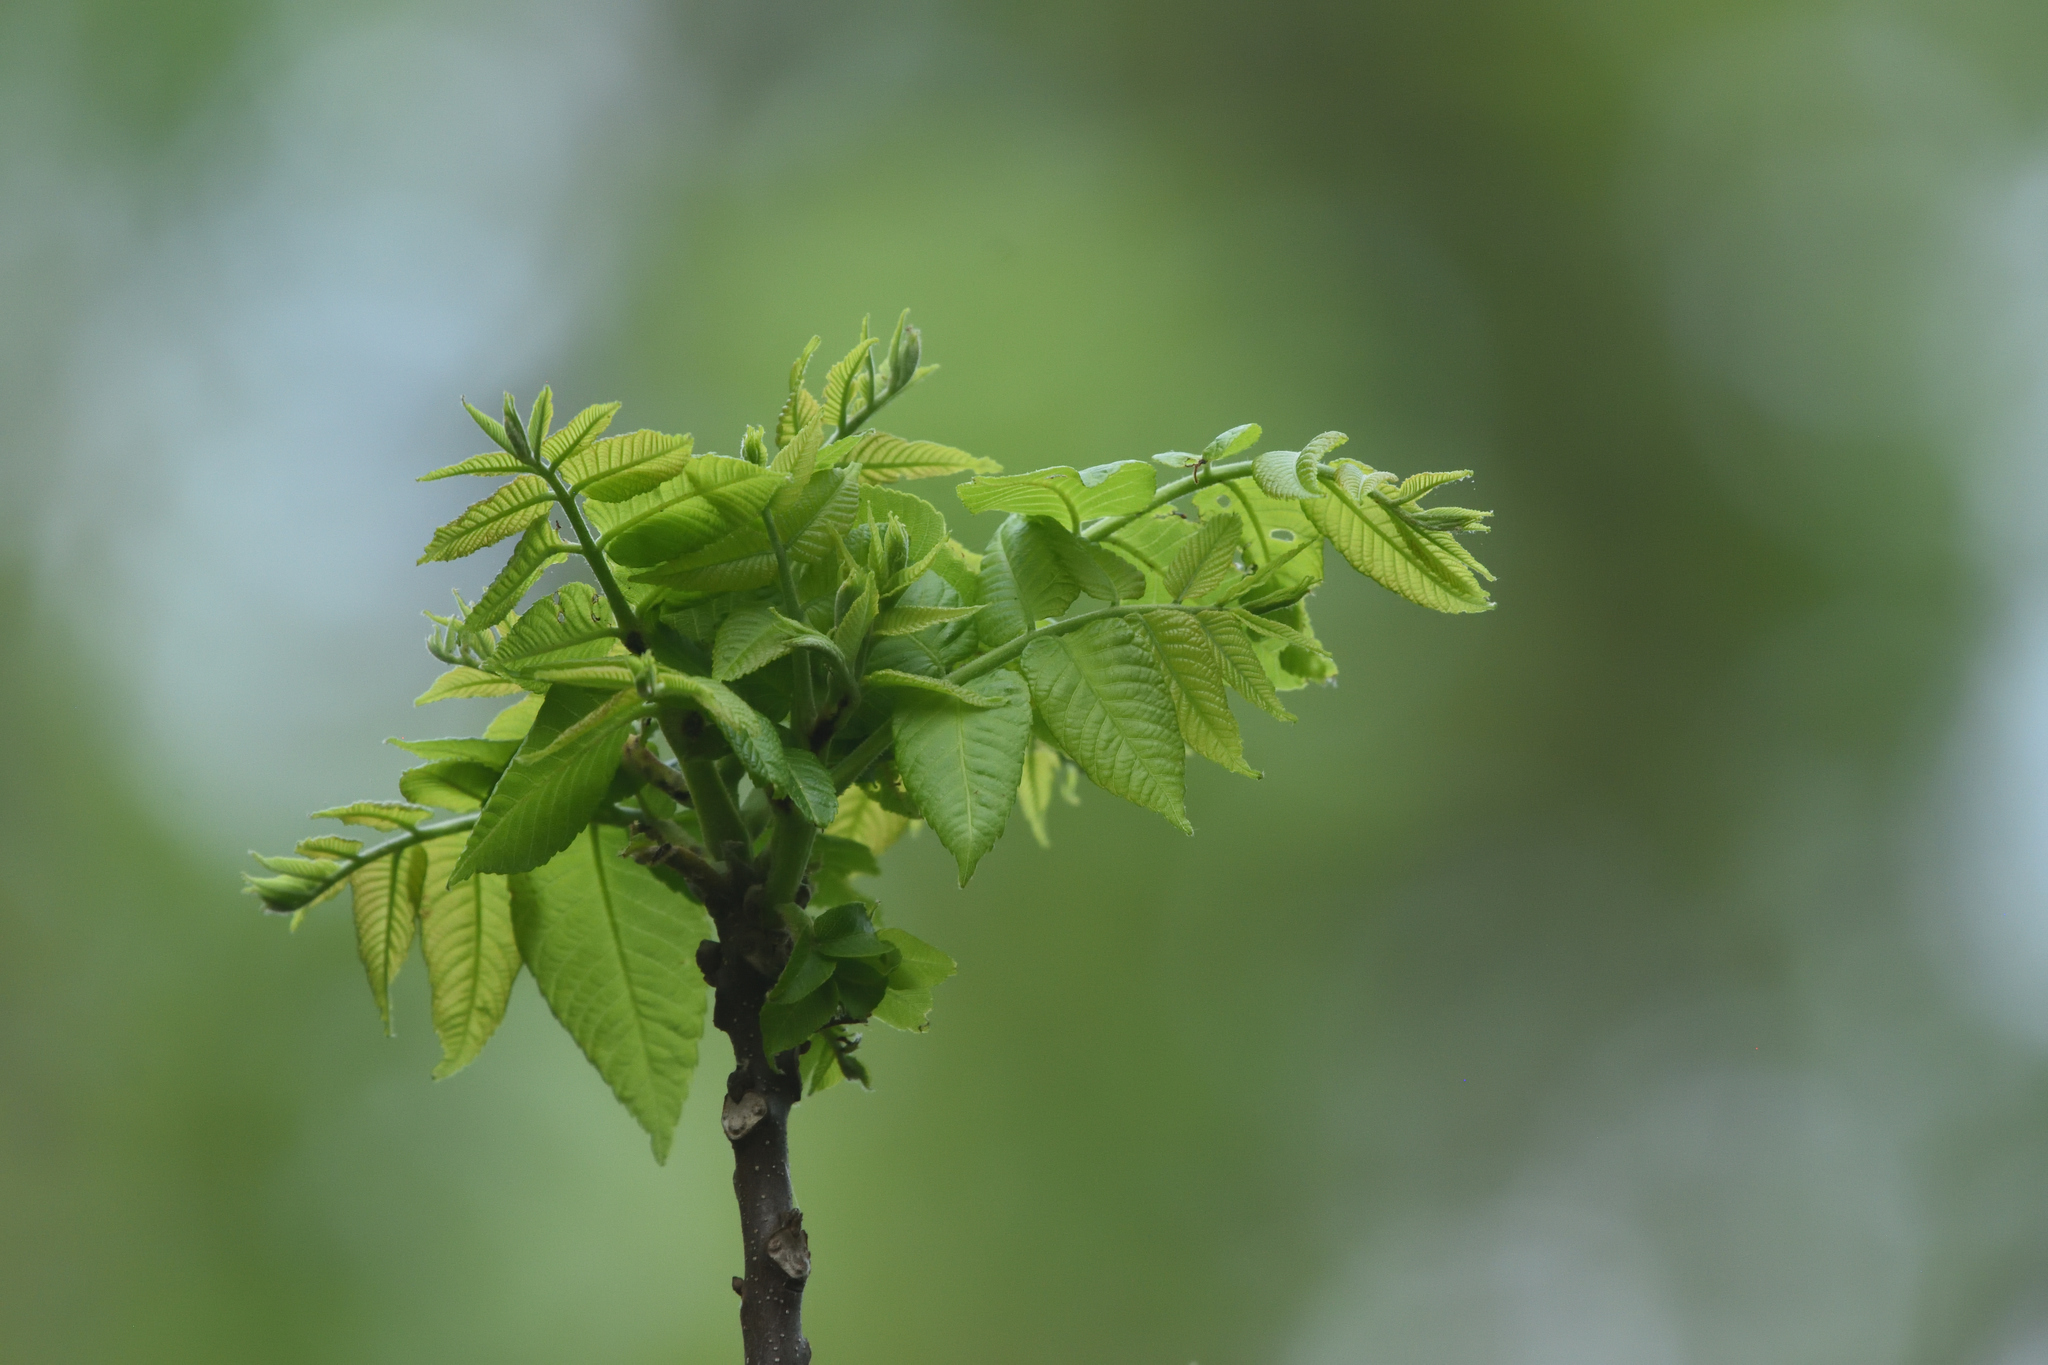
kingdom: Plantae
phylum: Tracheophyta
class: Magnoliopsida
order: Fagales
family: Juglandaceae
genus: Juglans
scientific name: Juglans nigra
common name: Black walnut
